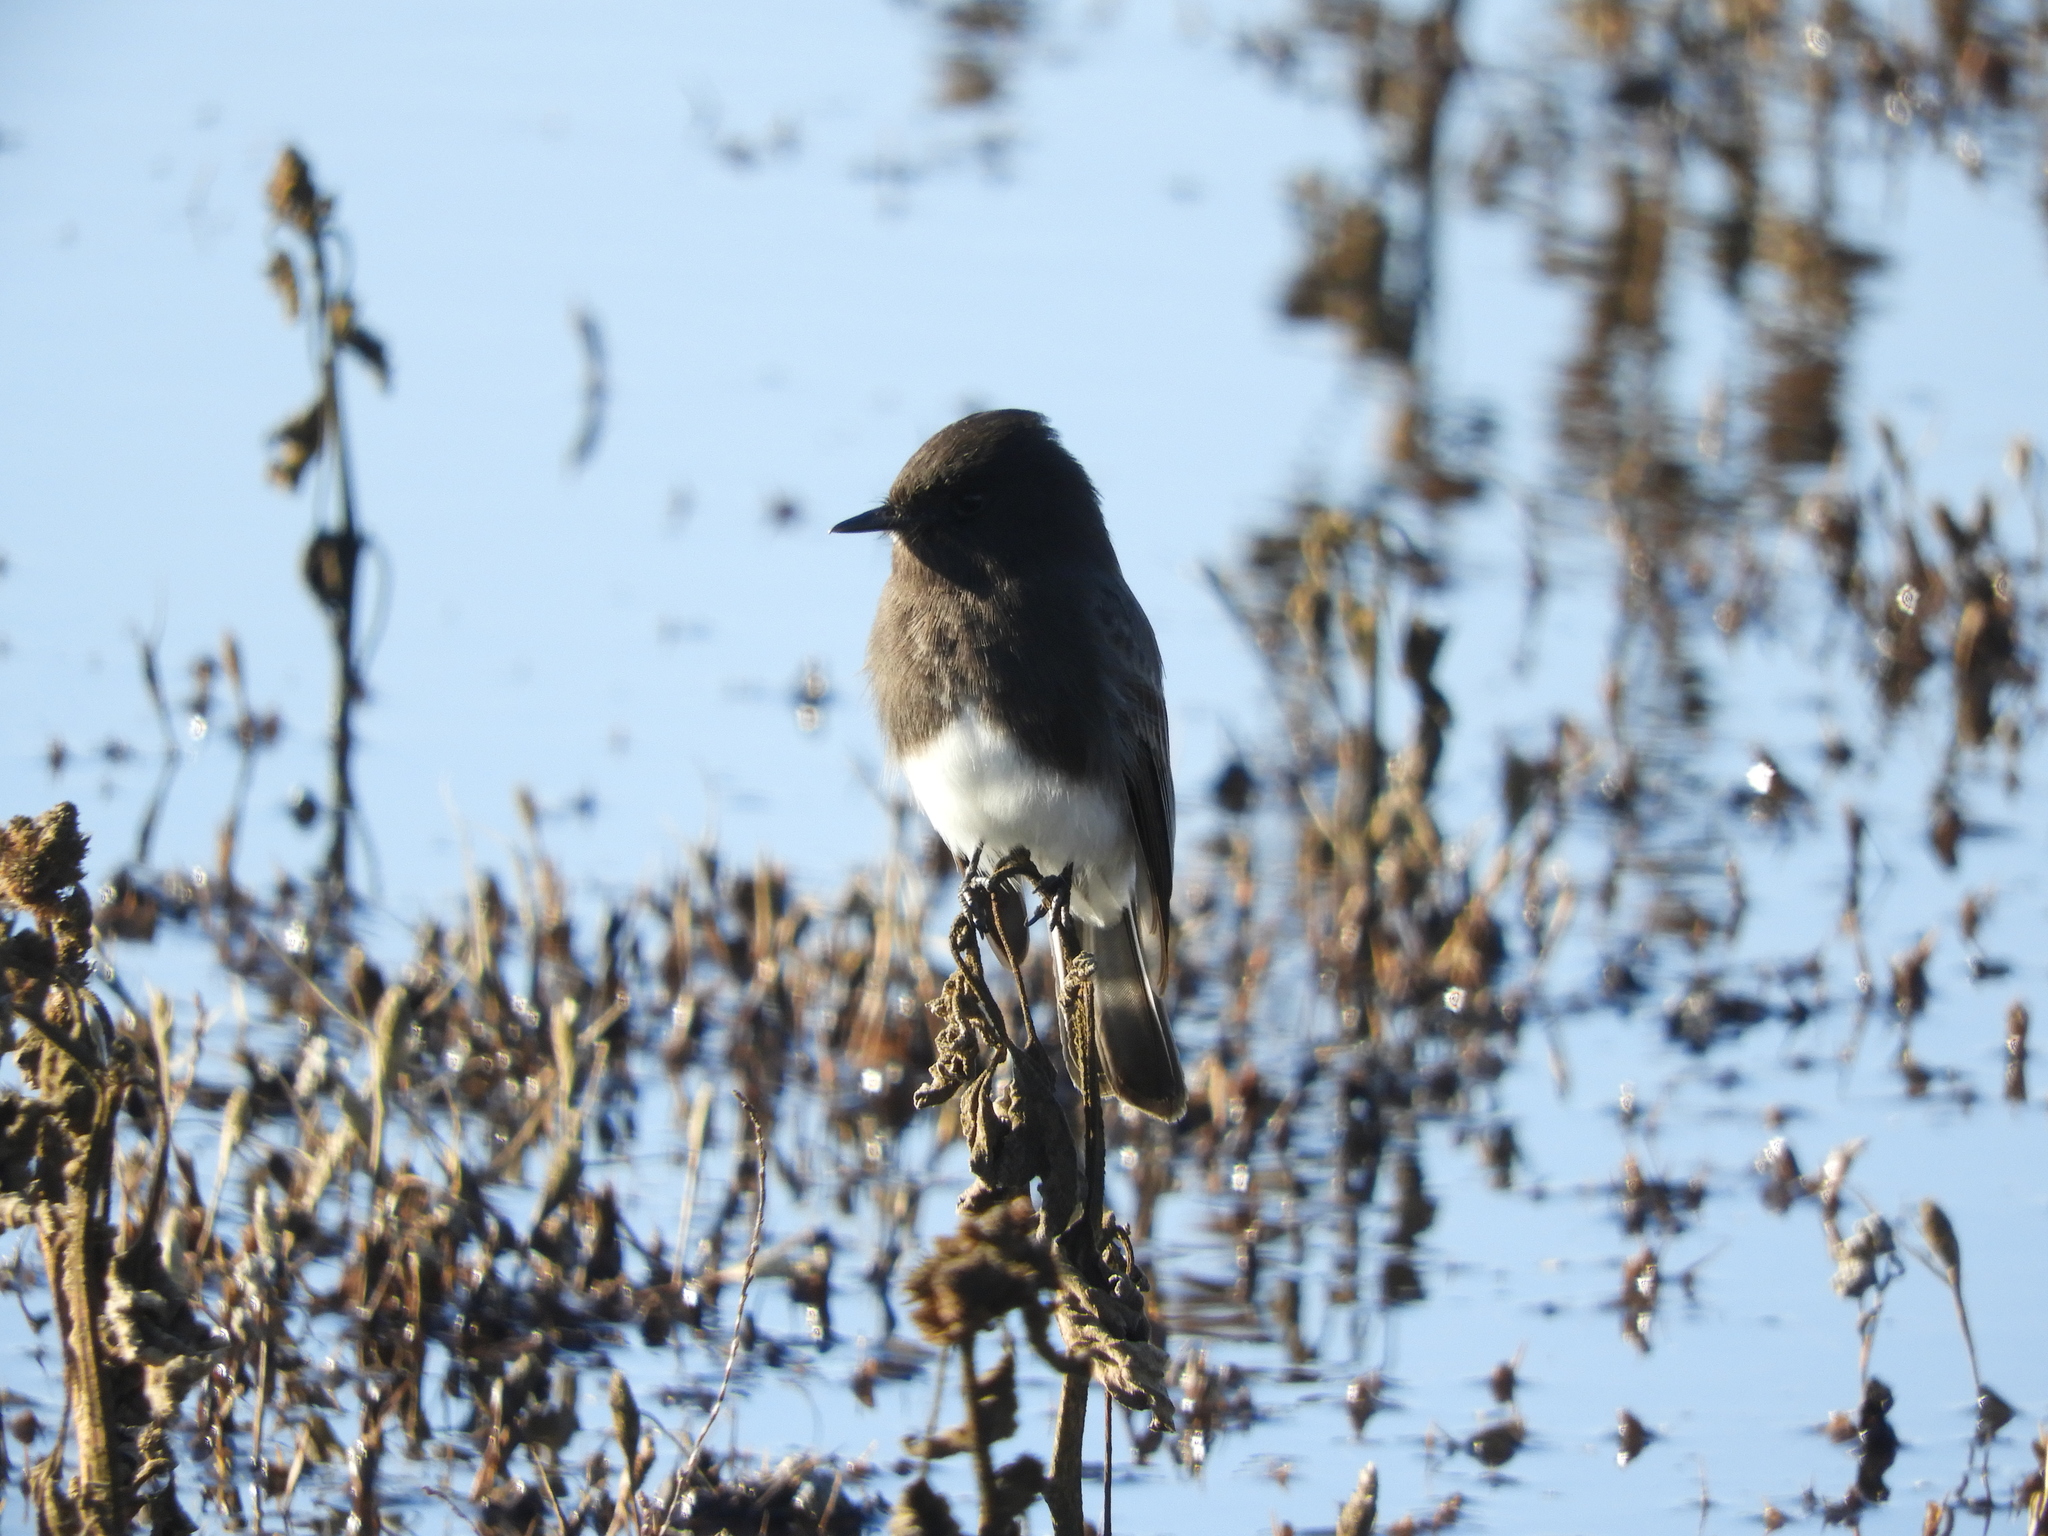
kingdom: Animalia
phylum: Chordata
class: Aves
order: Passeriformes
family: Tyrannidae
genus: Sayornis
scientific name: Sayornis nigricans
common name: Black phoebe
